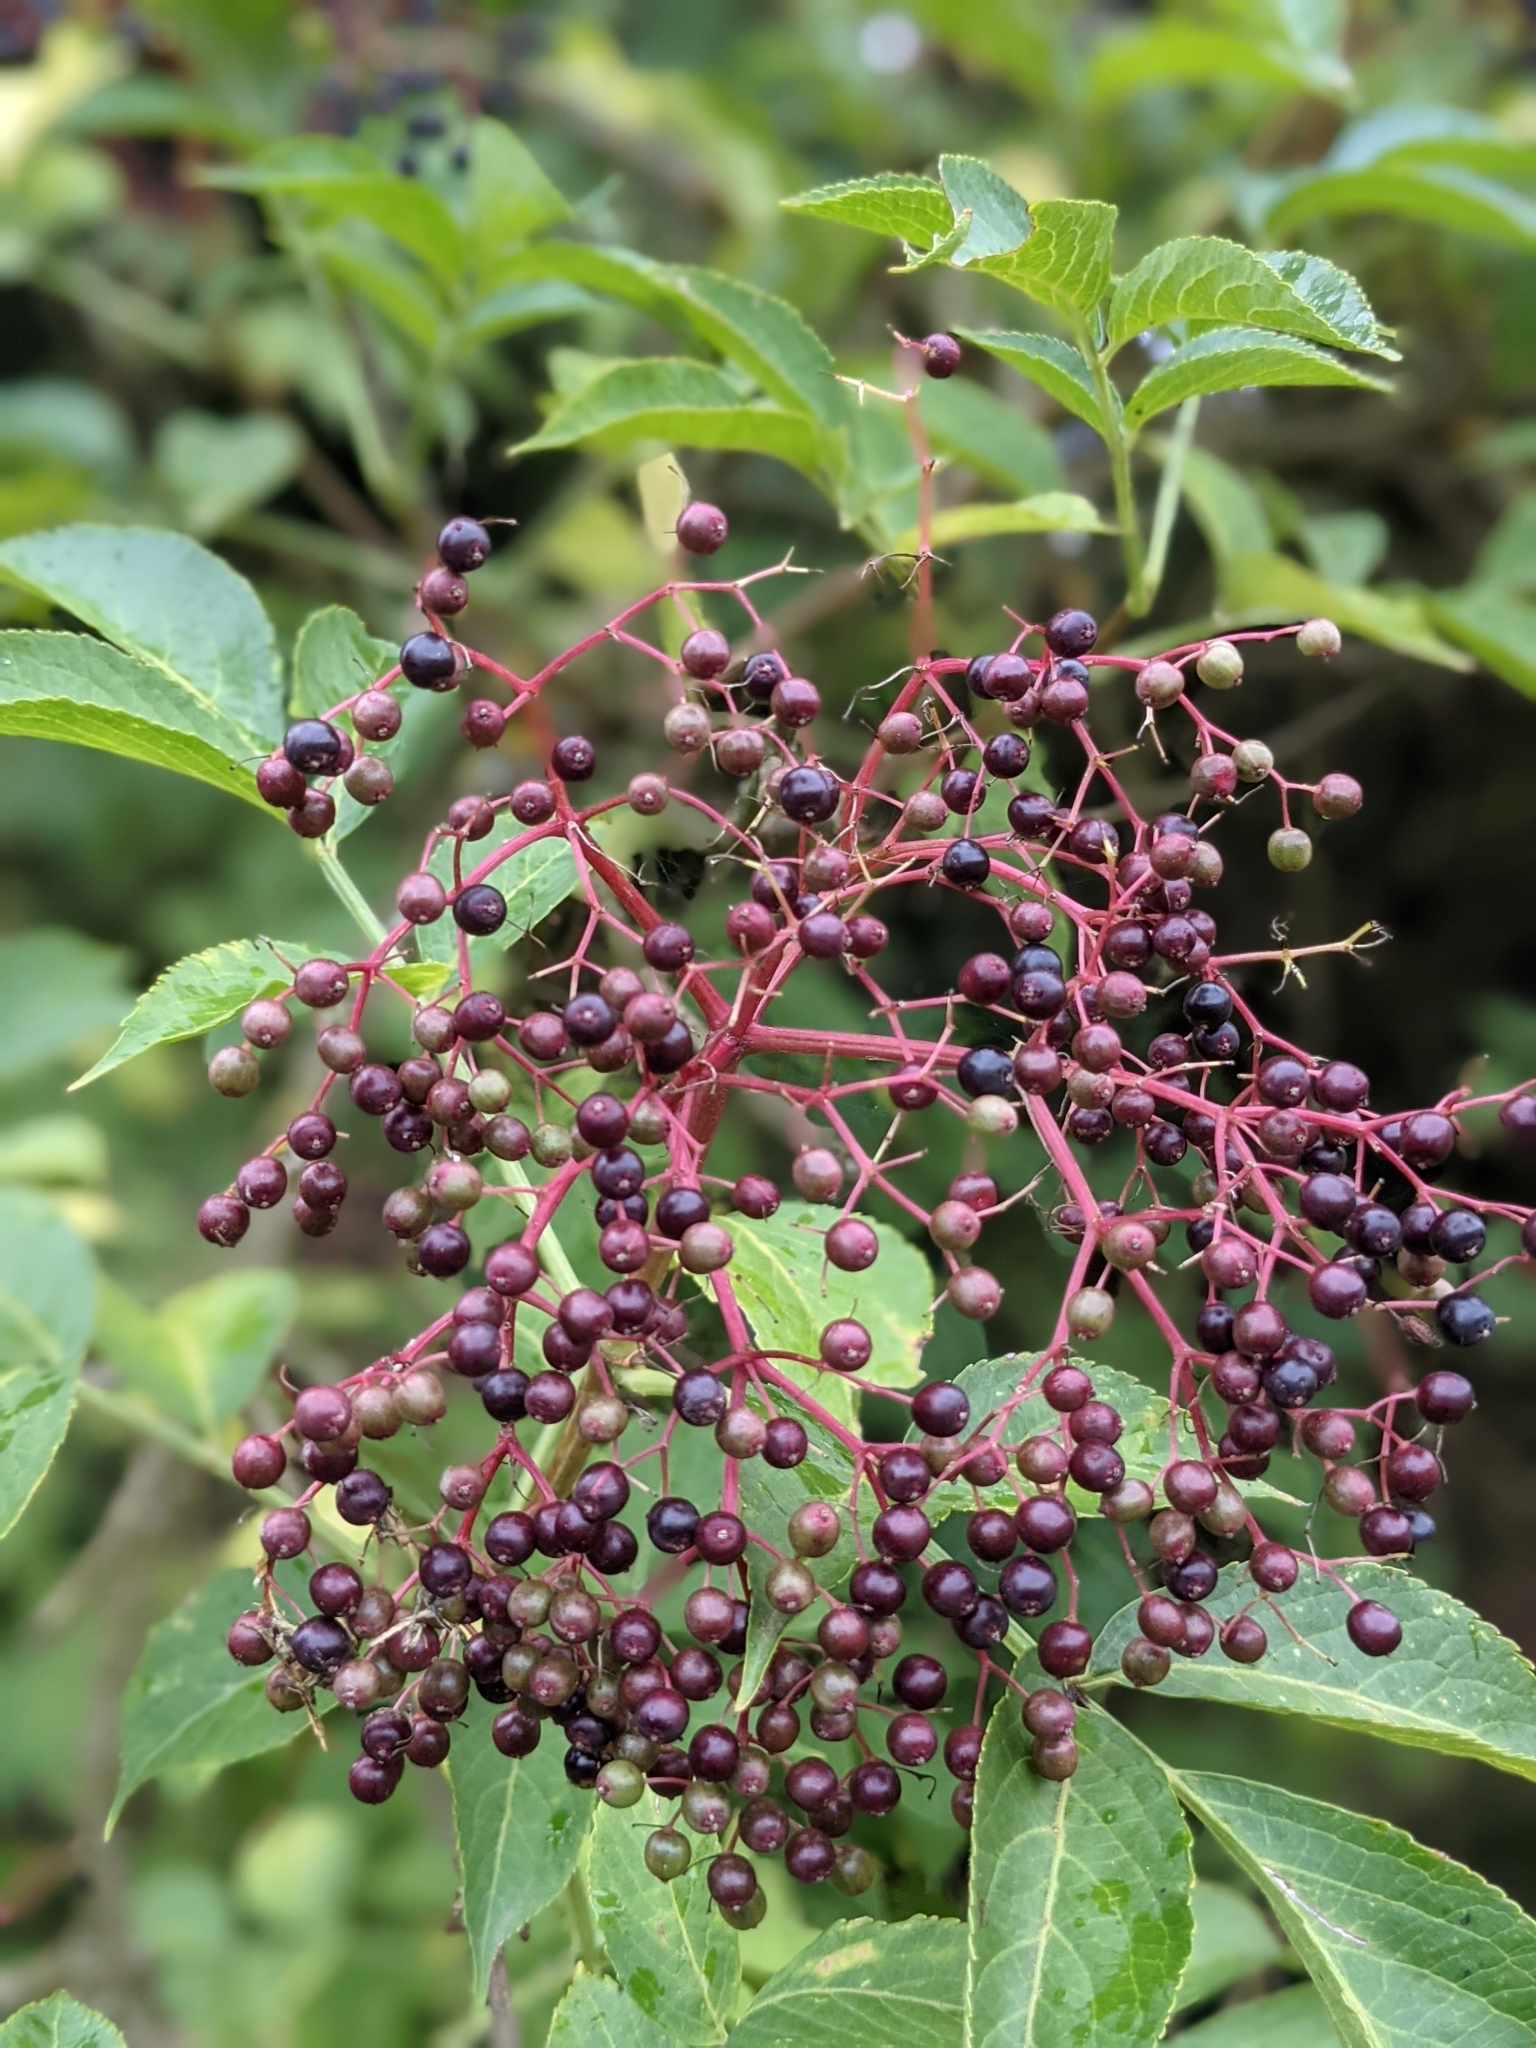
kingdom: Plantae
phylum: Tracheophyta
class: Magnoliopsida
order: Dipsacales
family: Viburnaceae
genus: Sambucus
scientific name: Sambucus nigra
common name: Elder
